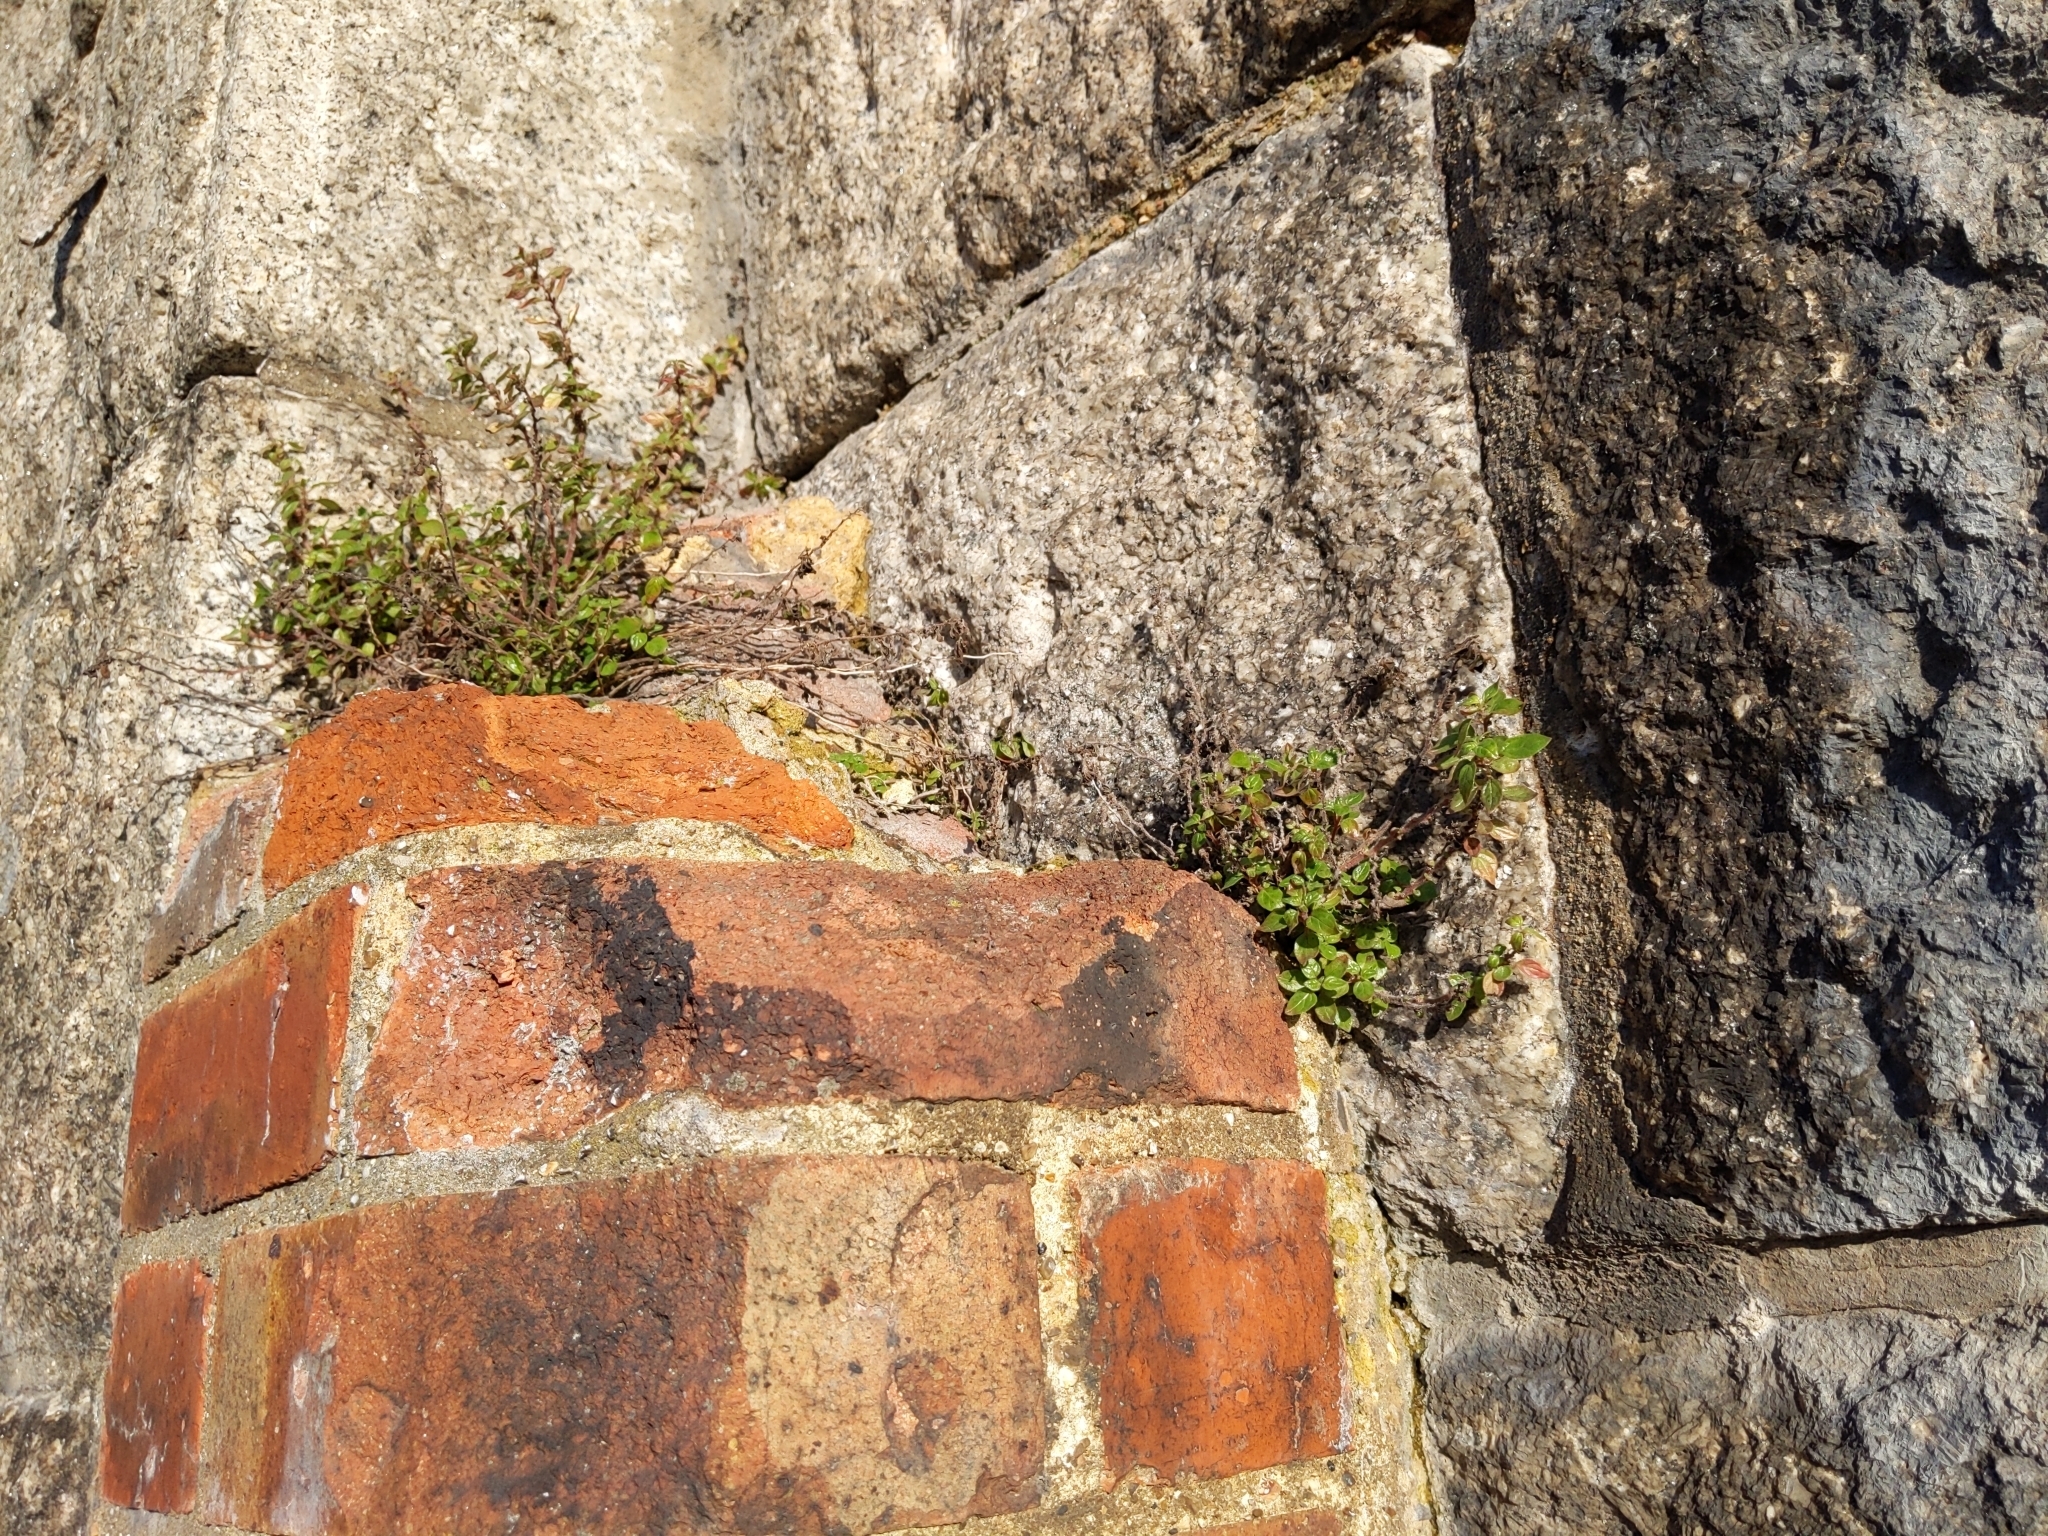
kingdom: Plantae
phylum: Tracheophyta
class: Magnoliopsida
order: Rosales
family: Urticaceae
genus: Parietaria
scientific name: Parietaria judaica
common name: Pellitory-of-the-wall
